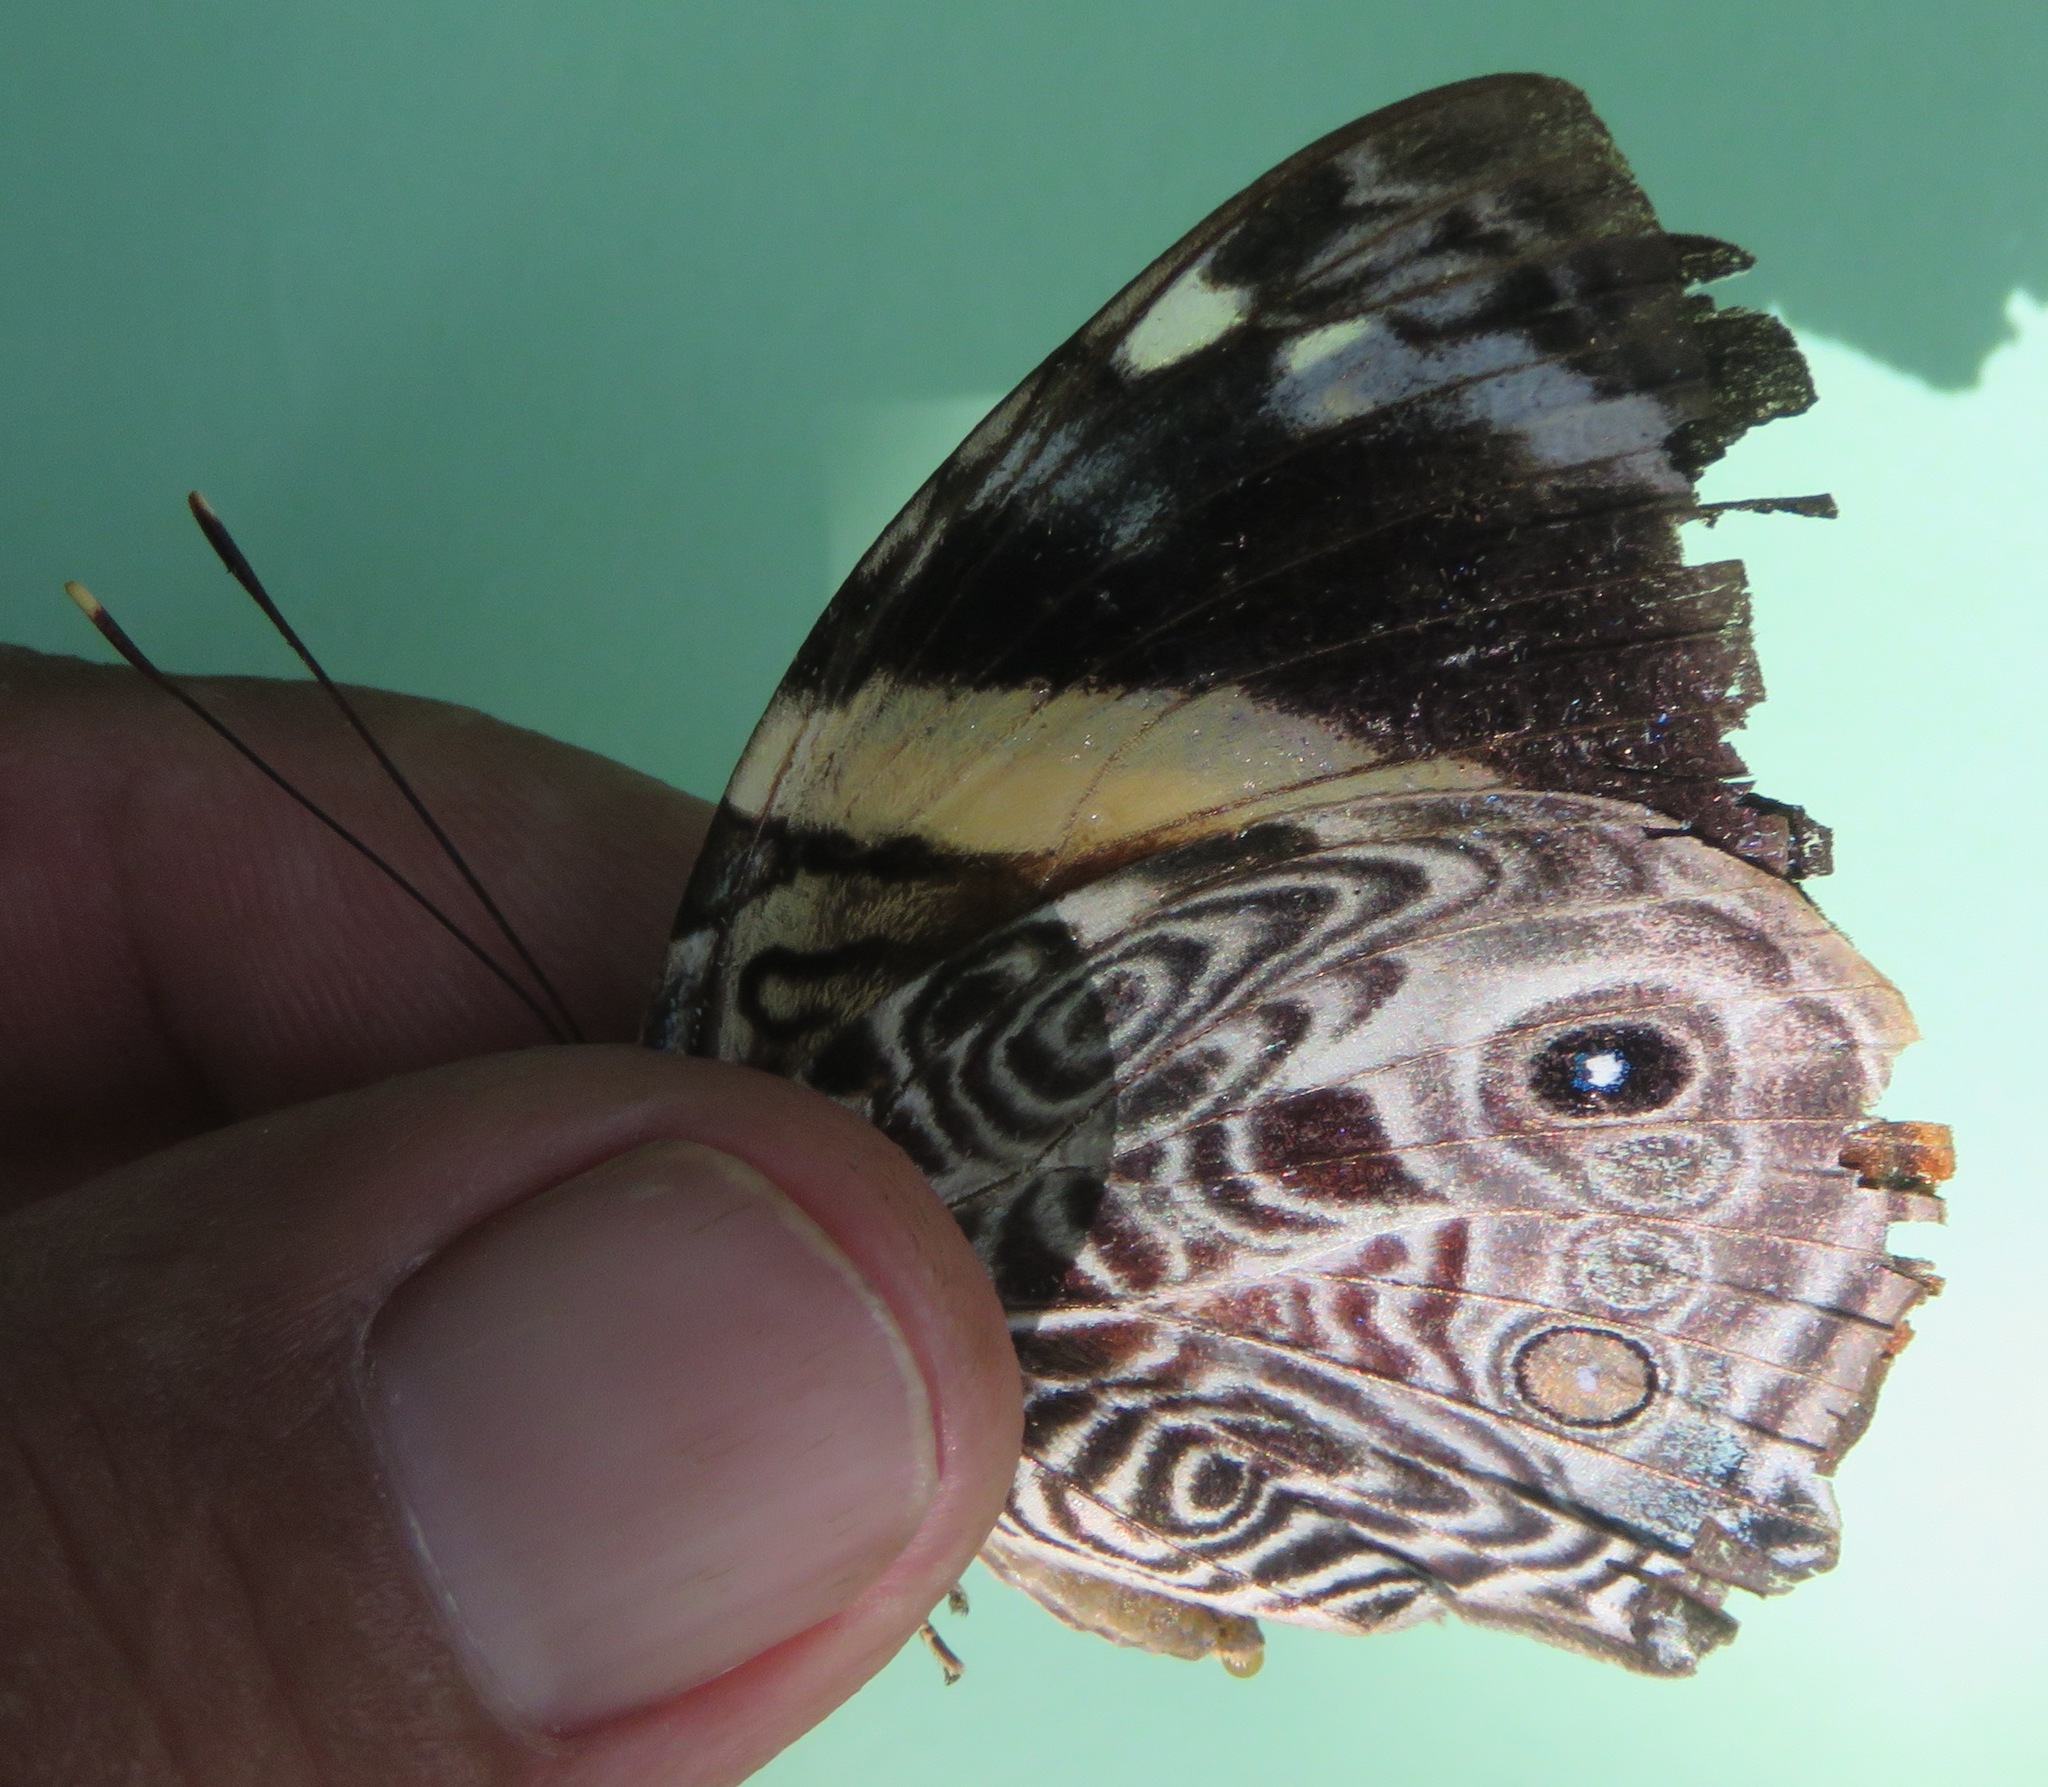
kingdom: Animalia
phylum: Arthropoda
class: Insecta
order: Lepidoptera
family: Nymphalidae
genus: Smyrna
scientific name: Smyrna blomfildia
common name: Blomfild's beauty
